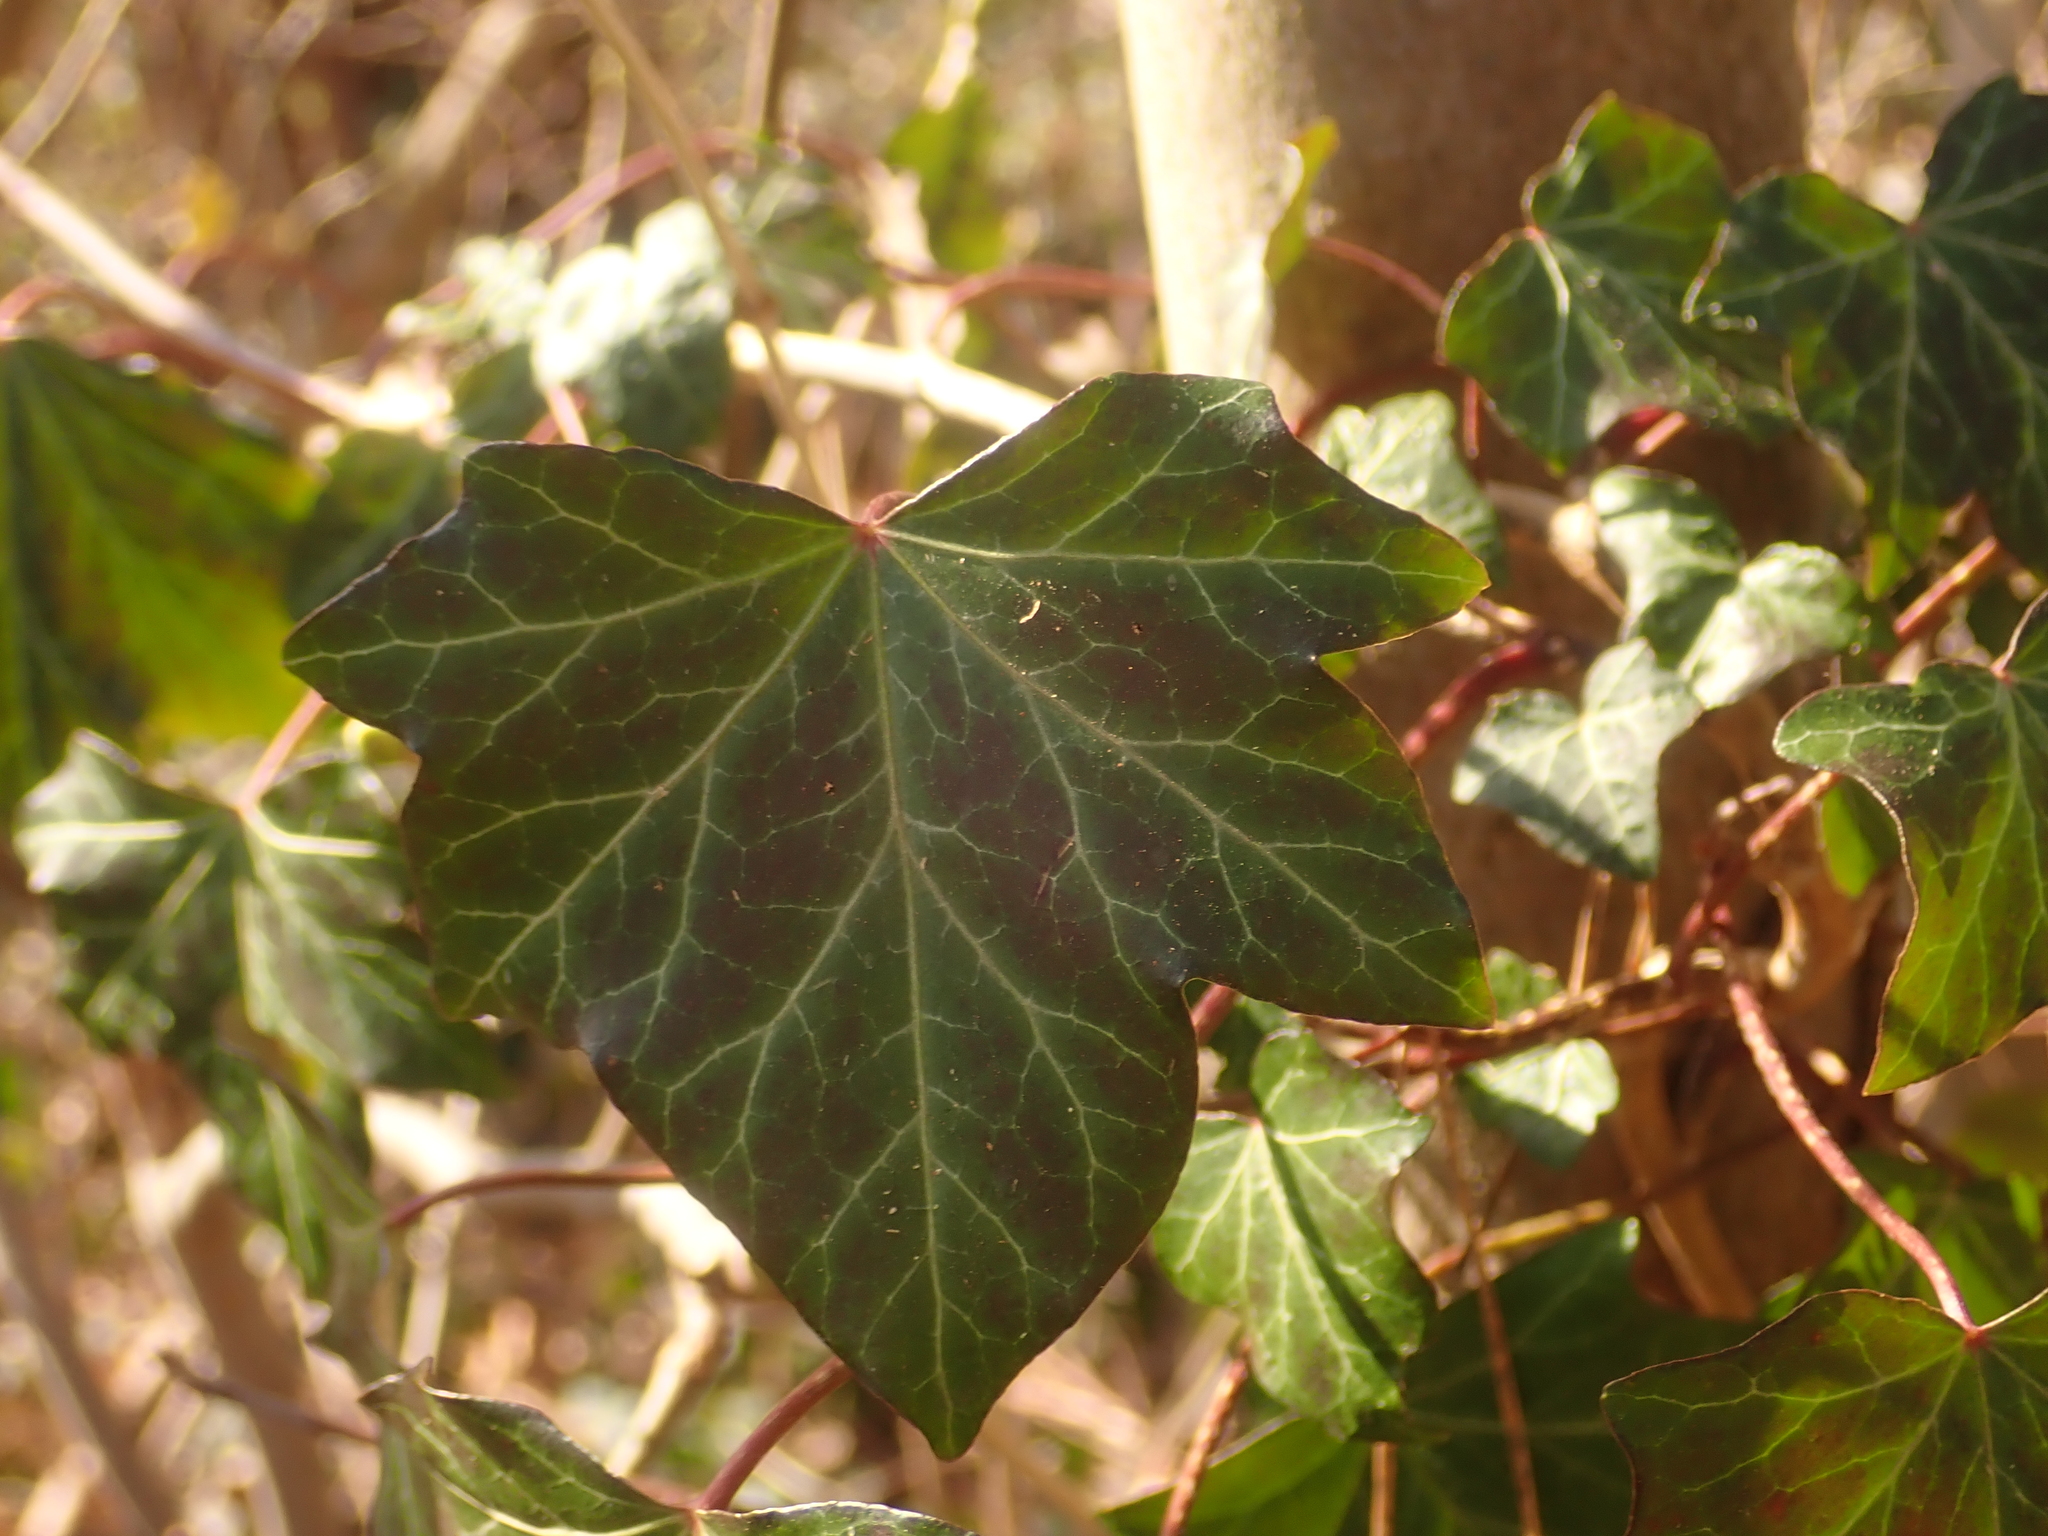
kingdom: Plantae
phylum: Tracheophyta
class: Magnoliopsida
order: Apiales
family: Araliaceae
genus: Hedera
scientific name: Hedera helix
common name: Ivy
